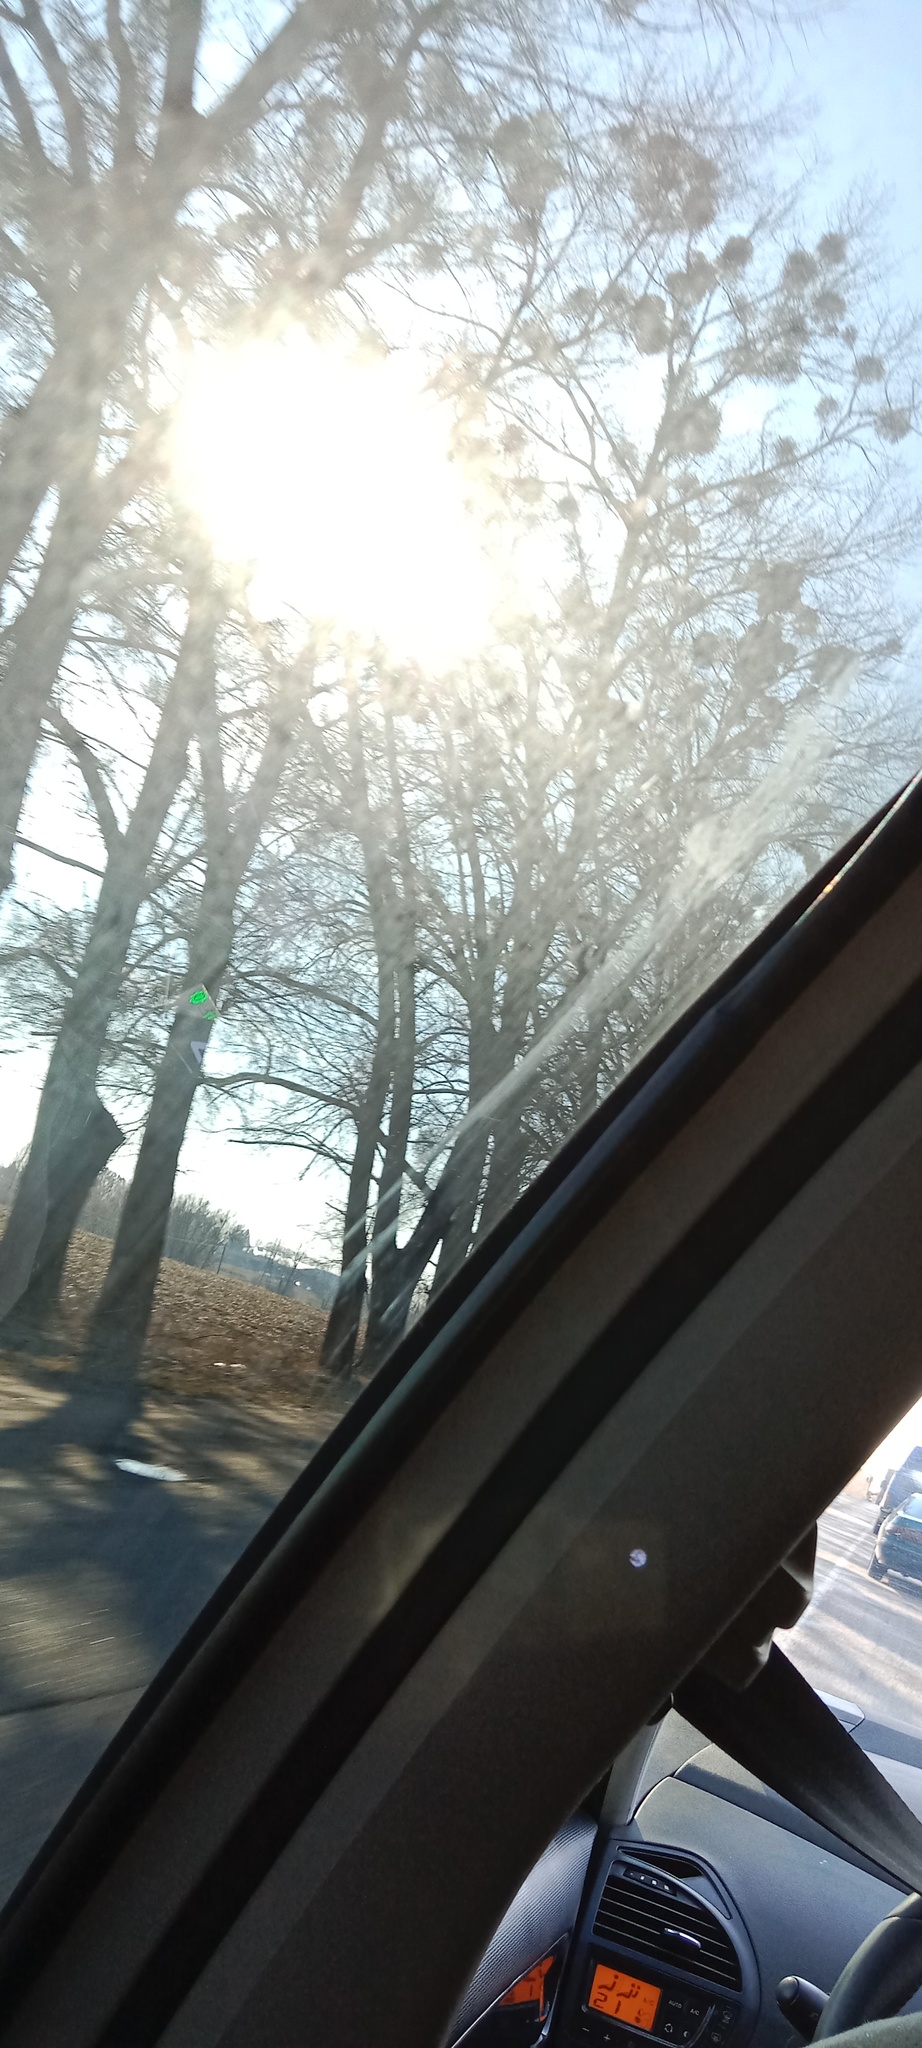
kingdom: Plantae
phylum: Tracheophyta
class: Magnoliopsida
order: Santalales
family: Viscaceae
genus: Viscum
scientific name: Viscum album
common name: Mistletoe
